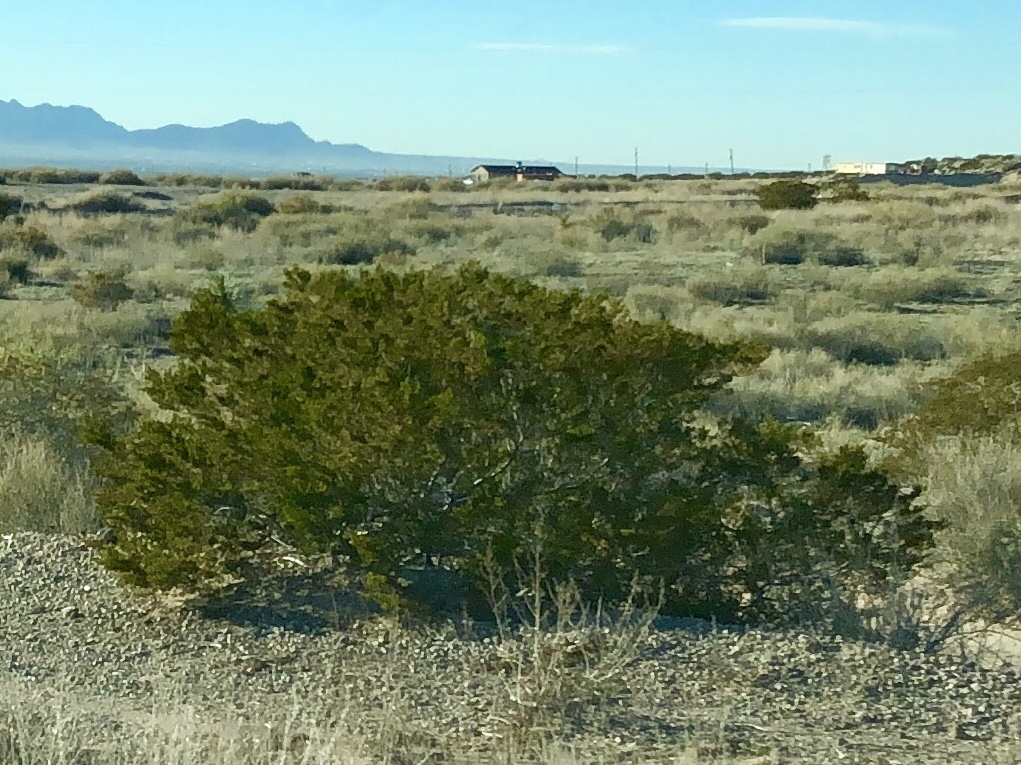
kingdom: Plantae
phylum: Tracheophyta
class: Magnoliopsida
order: Zygophyllales
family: Zygophyllaceae
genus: Larrea
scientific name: Larrea tridentata
